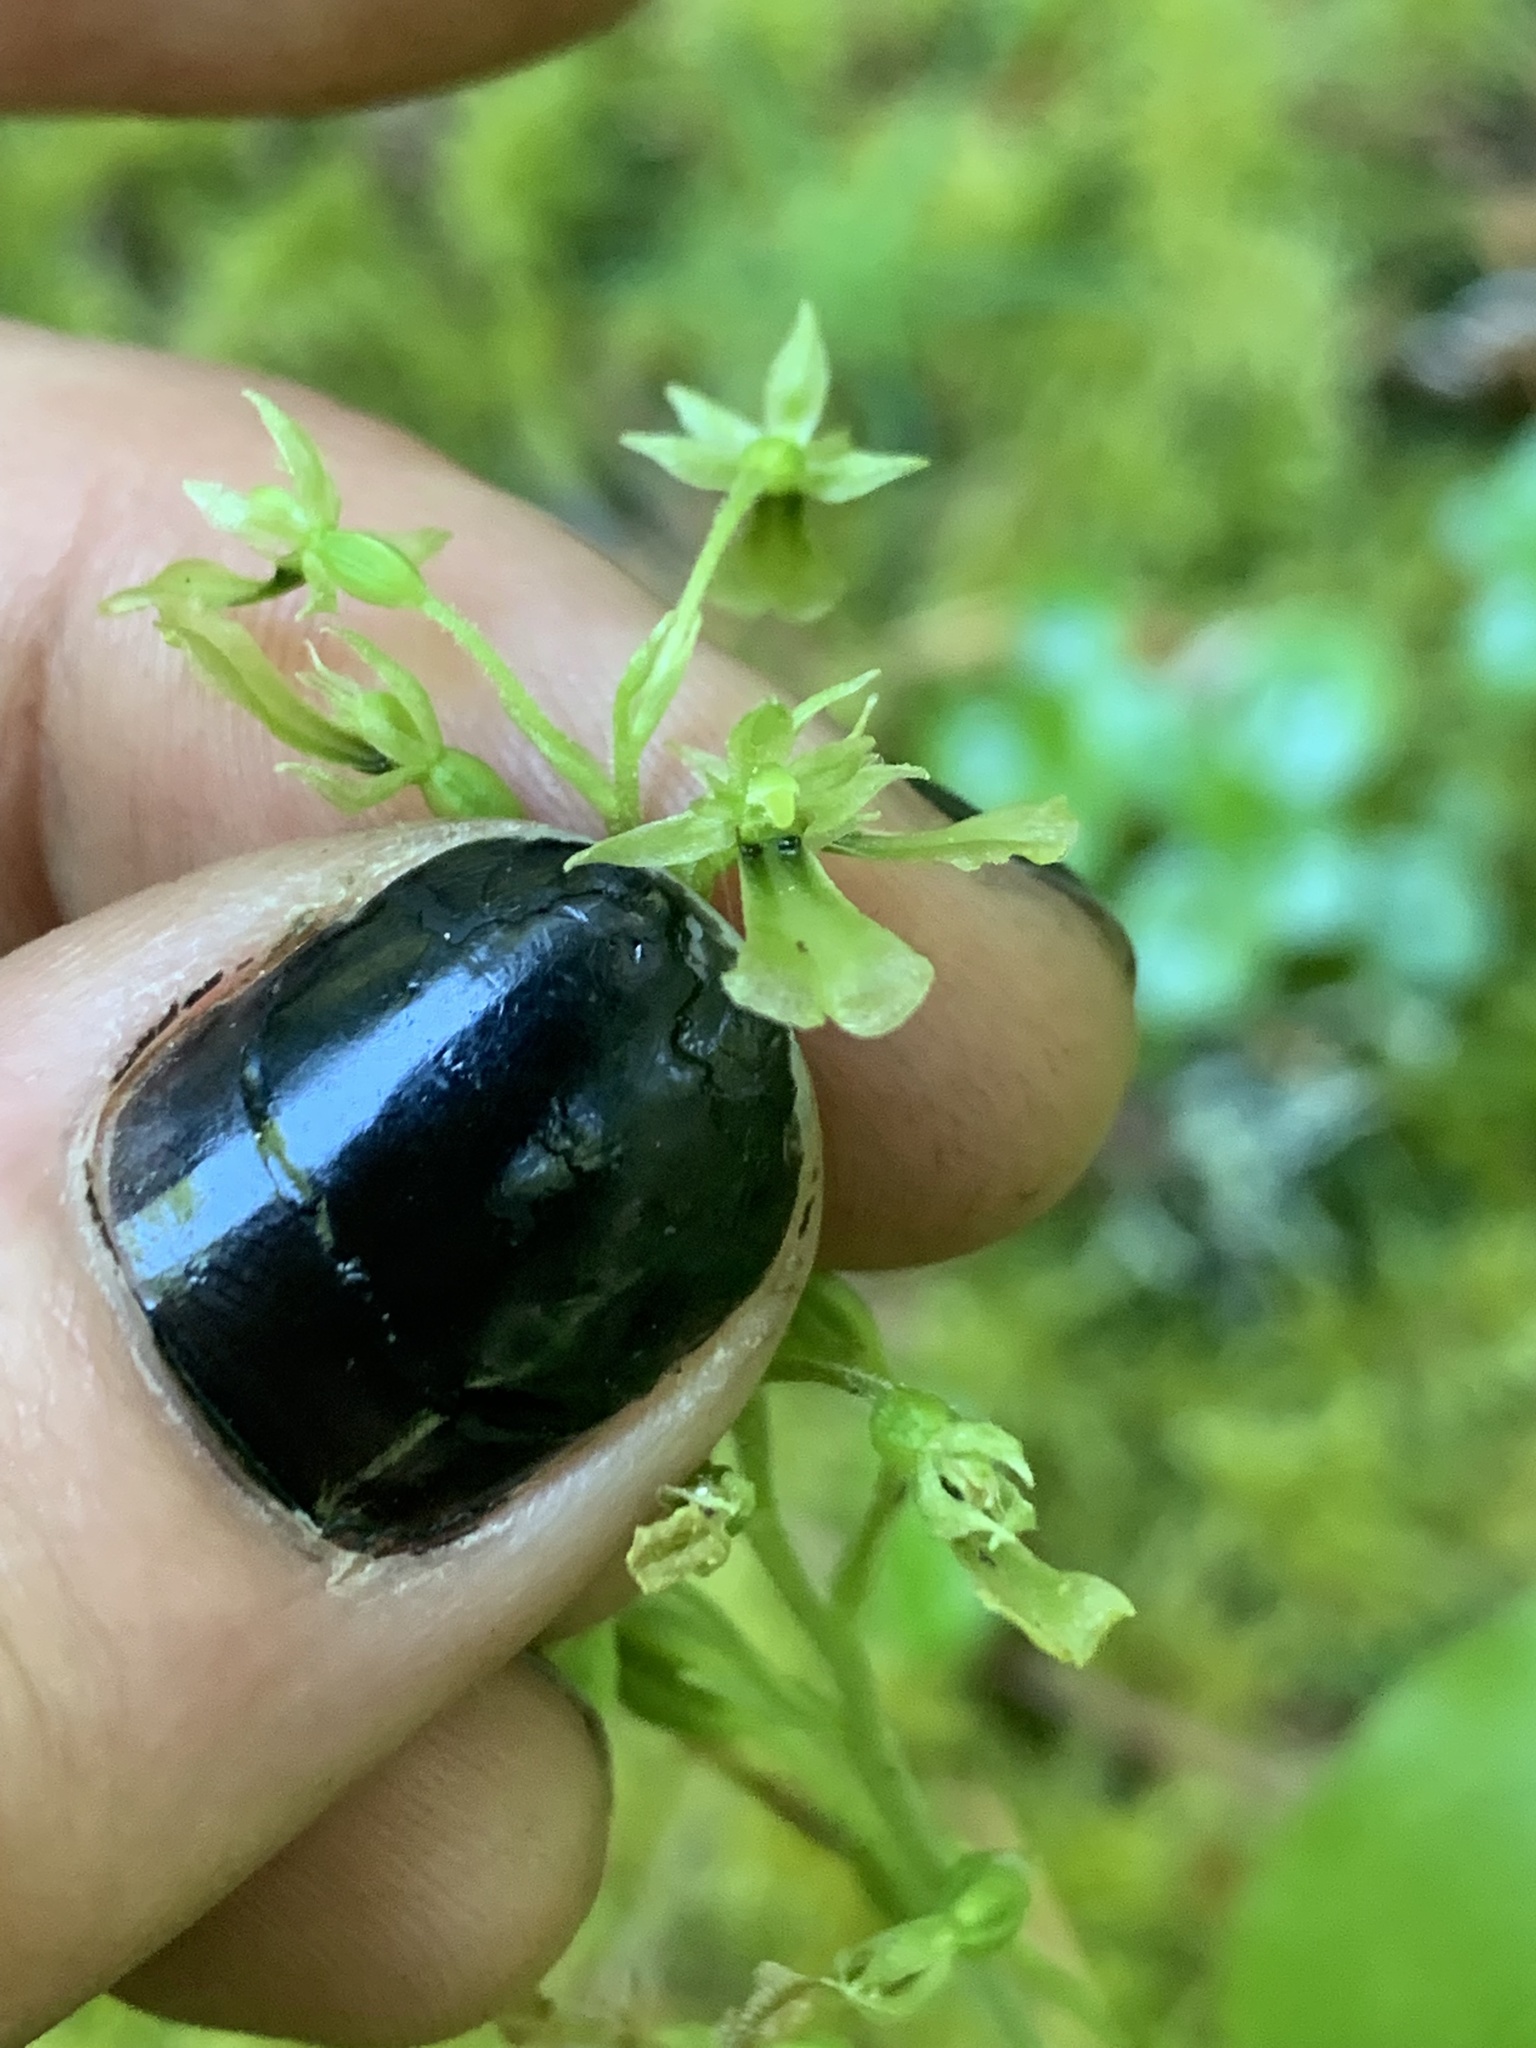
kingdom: Plantae
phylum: Tracheophyta
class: Liliopsida
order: Asparagales
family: Orchidaceae
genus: Neottia
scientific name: Neottia banksiana
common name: Northwestern twayblade
